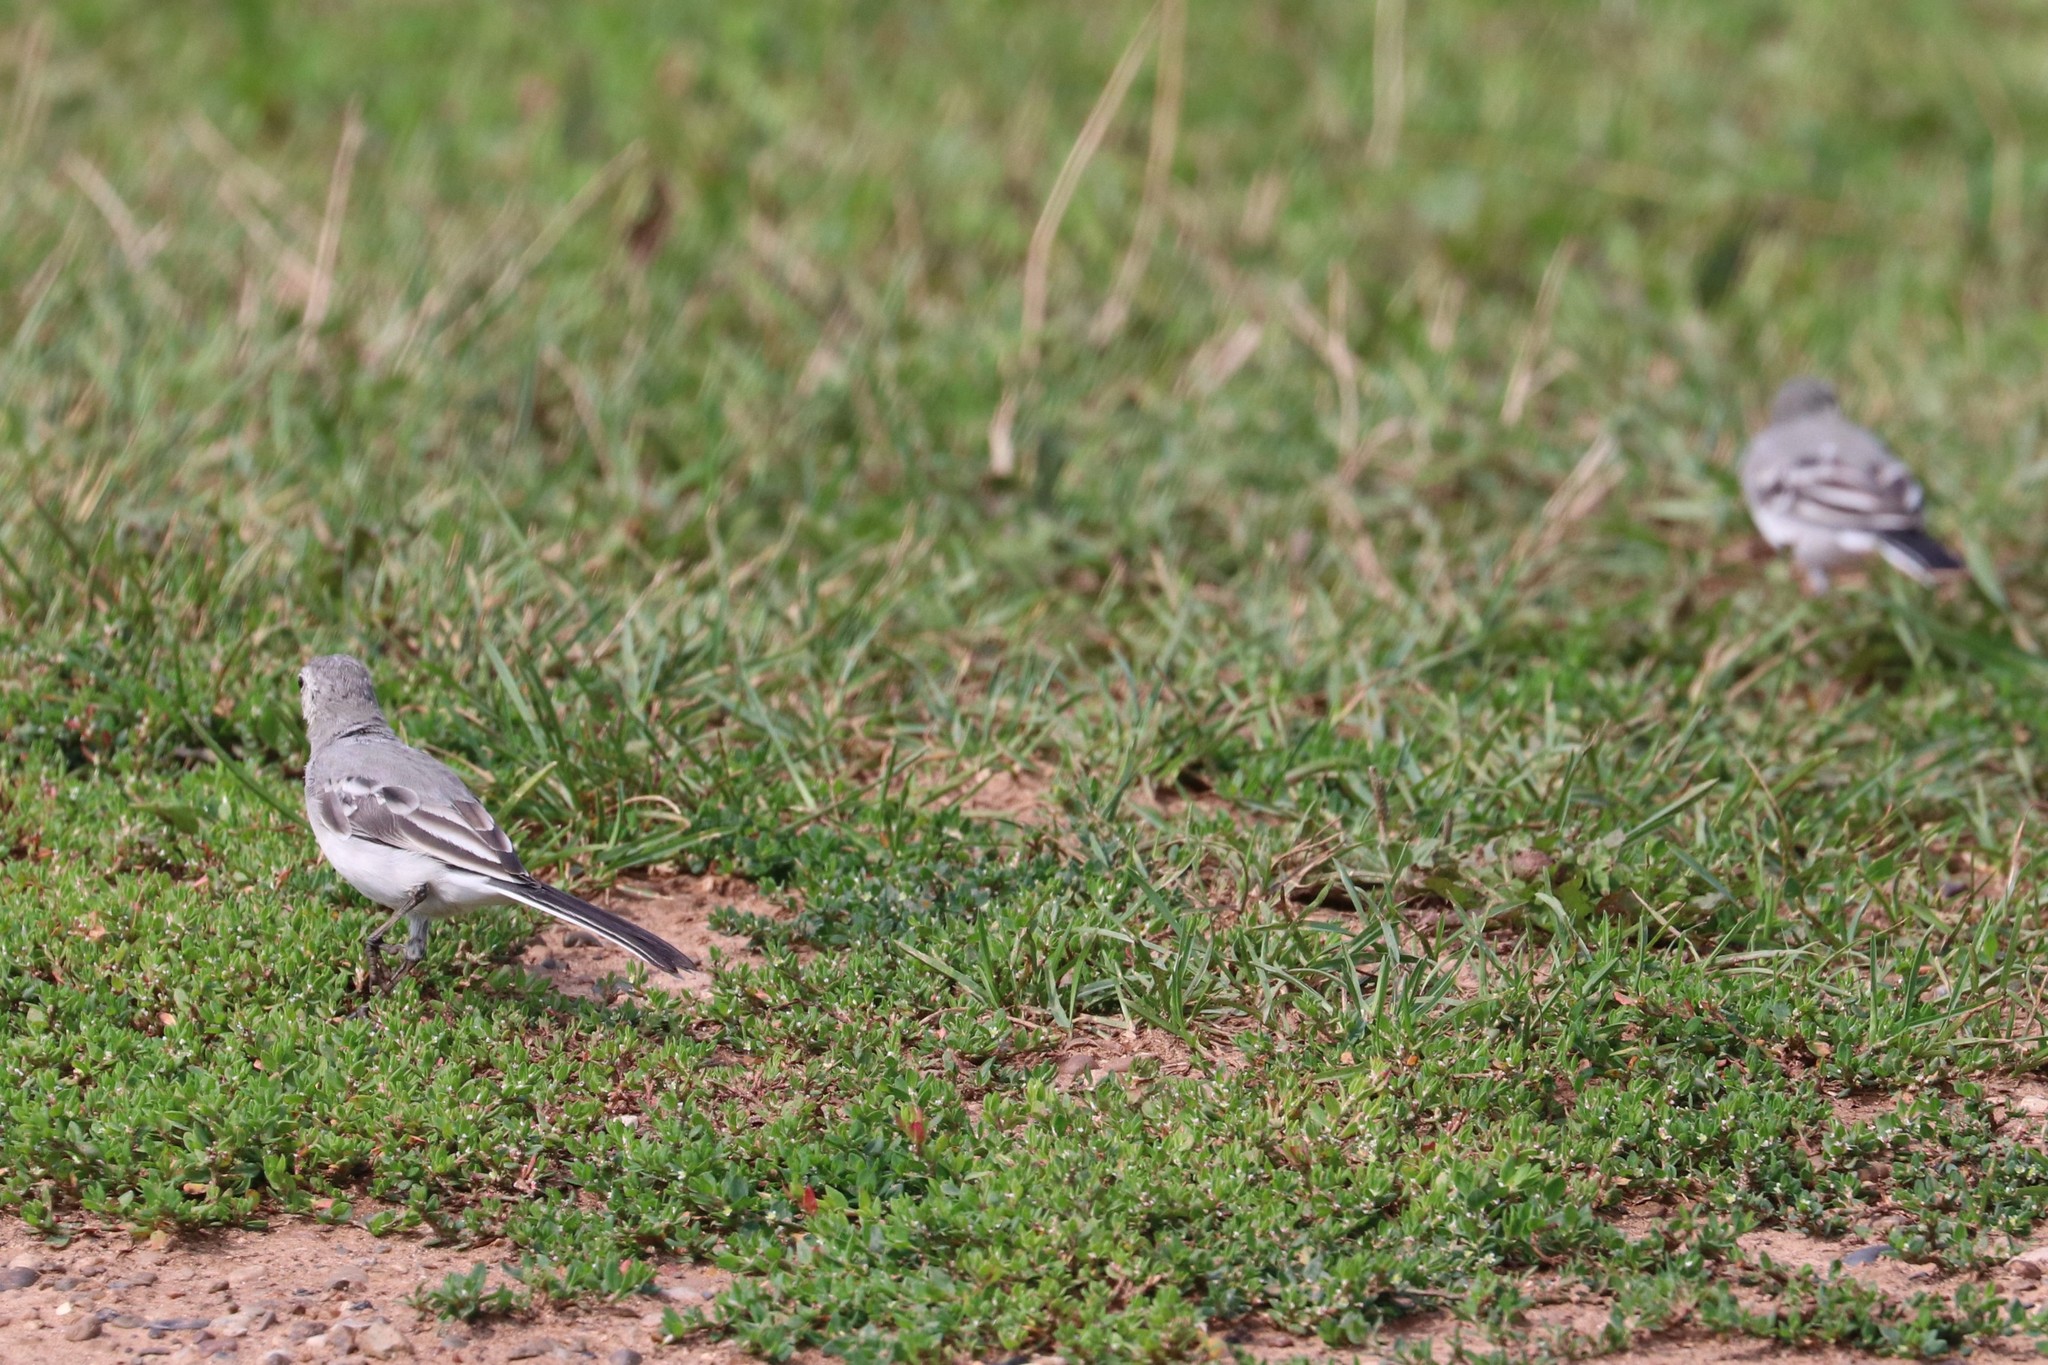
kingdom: Animalia
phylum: Chordata
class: Aves
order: Passeriformes
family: Motacillidae
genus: Motacilla
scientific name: Motacilla alba
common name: White wagtail
